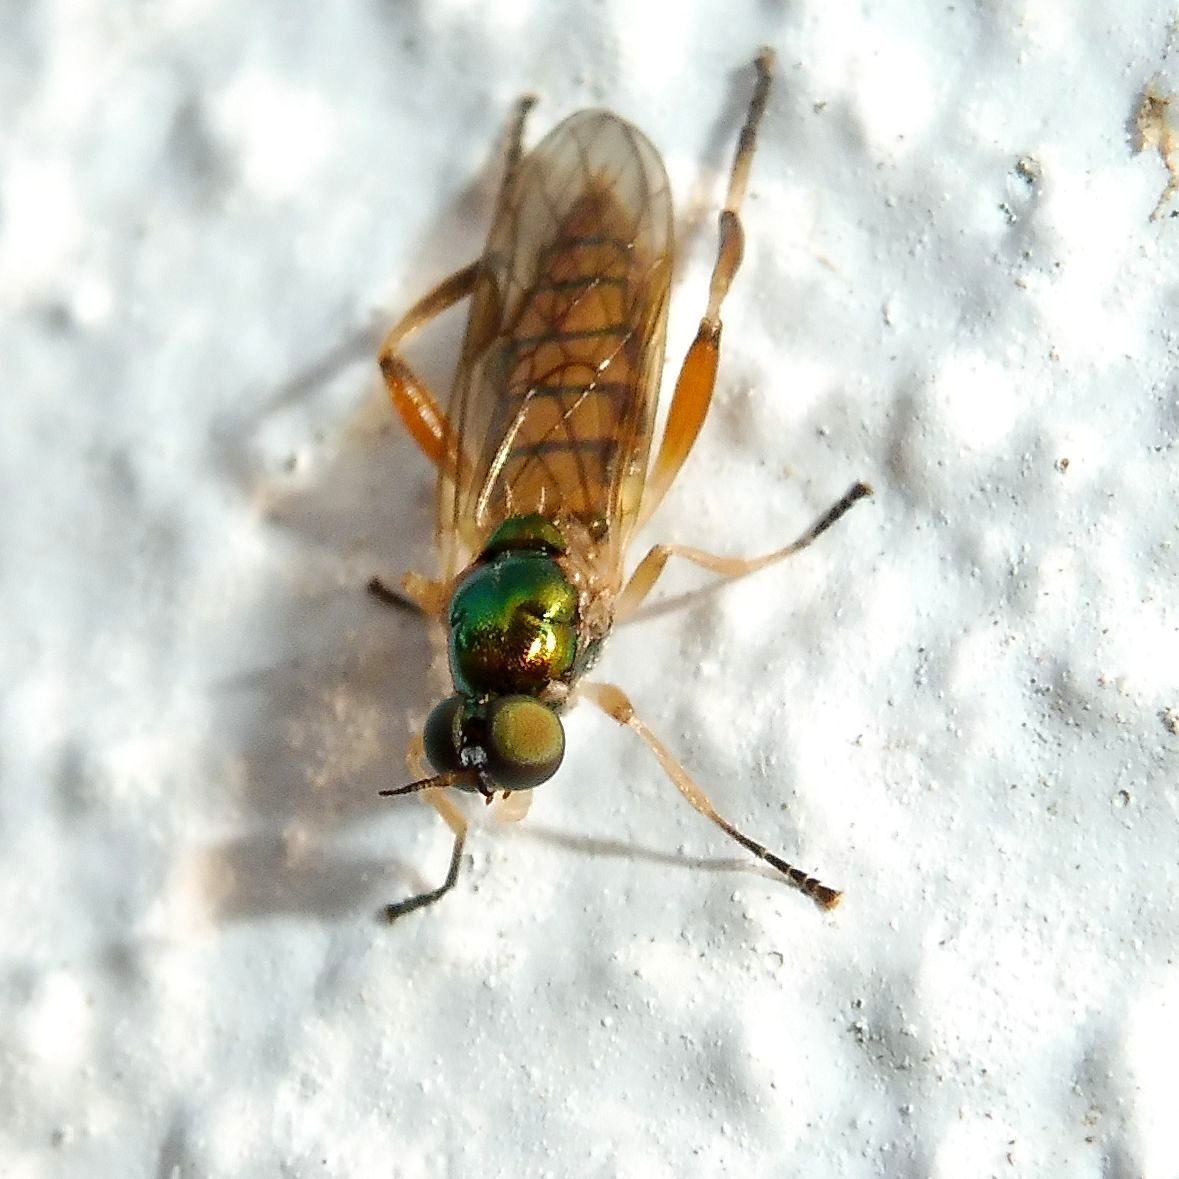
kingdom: Animalia
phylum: Arthropoda
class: Insecta
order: Diptera
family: Stratiomyidae
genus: Chorisops
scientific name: Chorisops nagatomii
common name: Bright four-spined legionnaire
